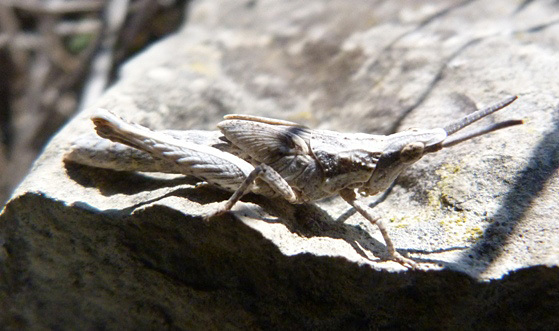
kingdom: Animalia
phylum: Arthropoda
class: Insecta
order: Orthoptera
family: Pyrgomorphidae
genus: Pyrgomorpha
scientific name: Pyrgomorpha conica
